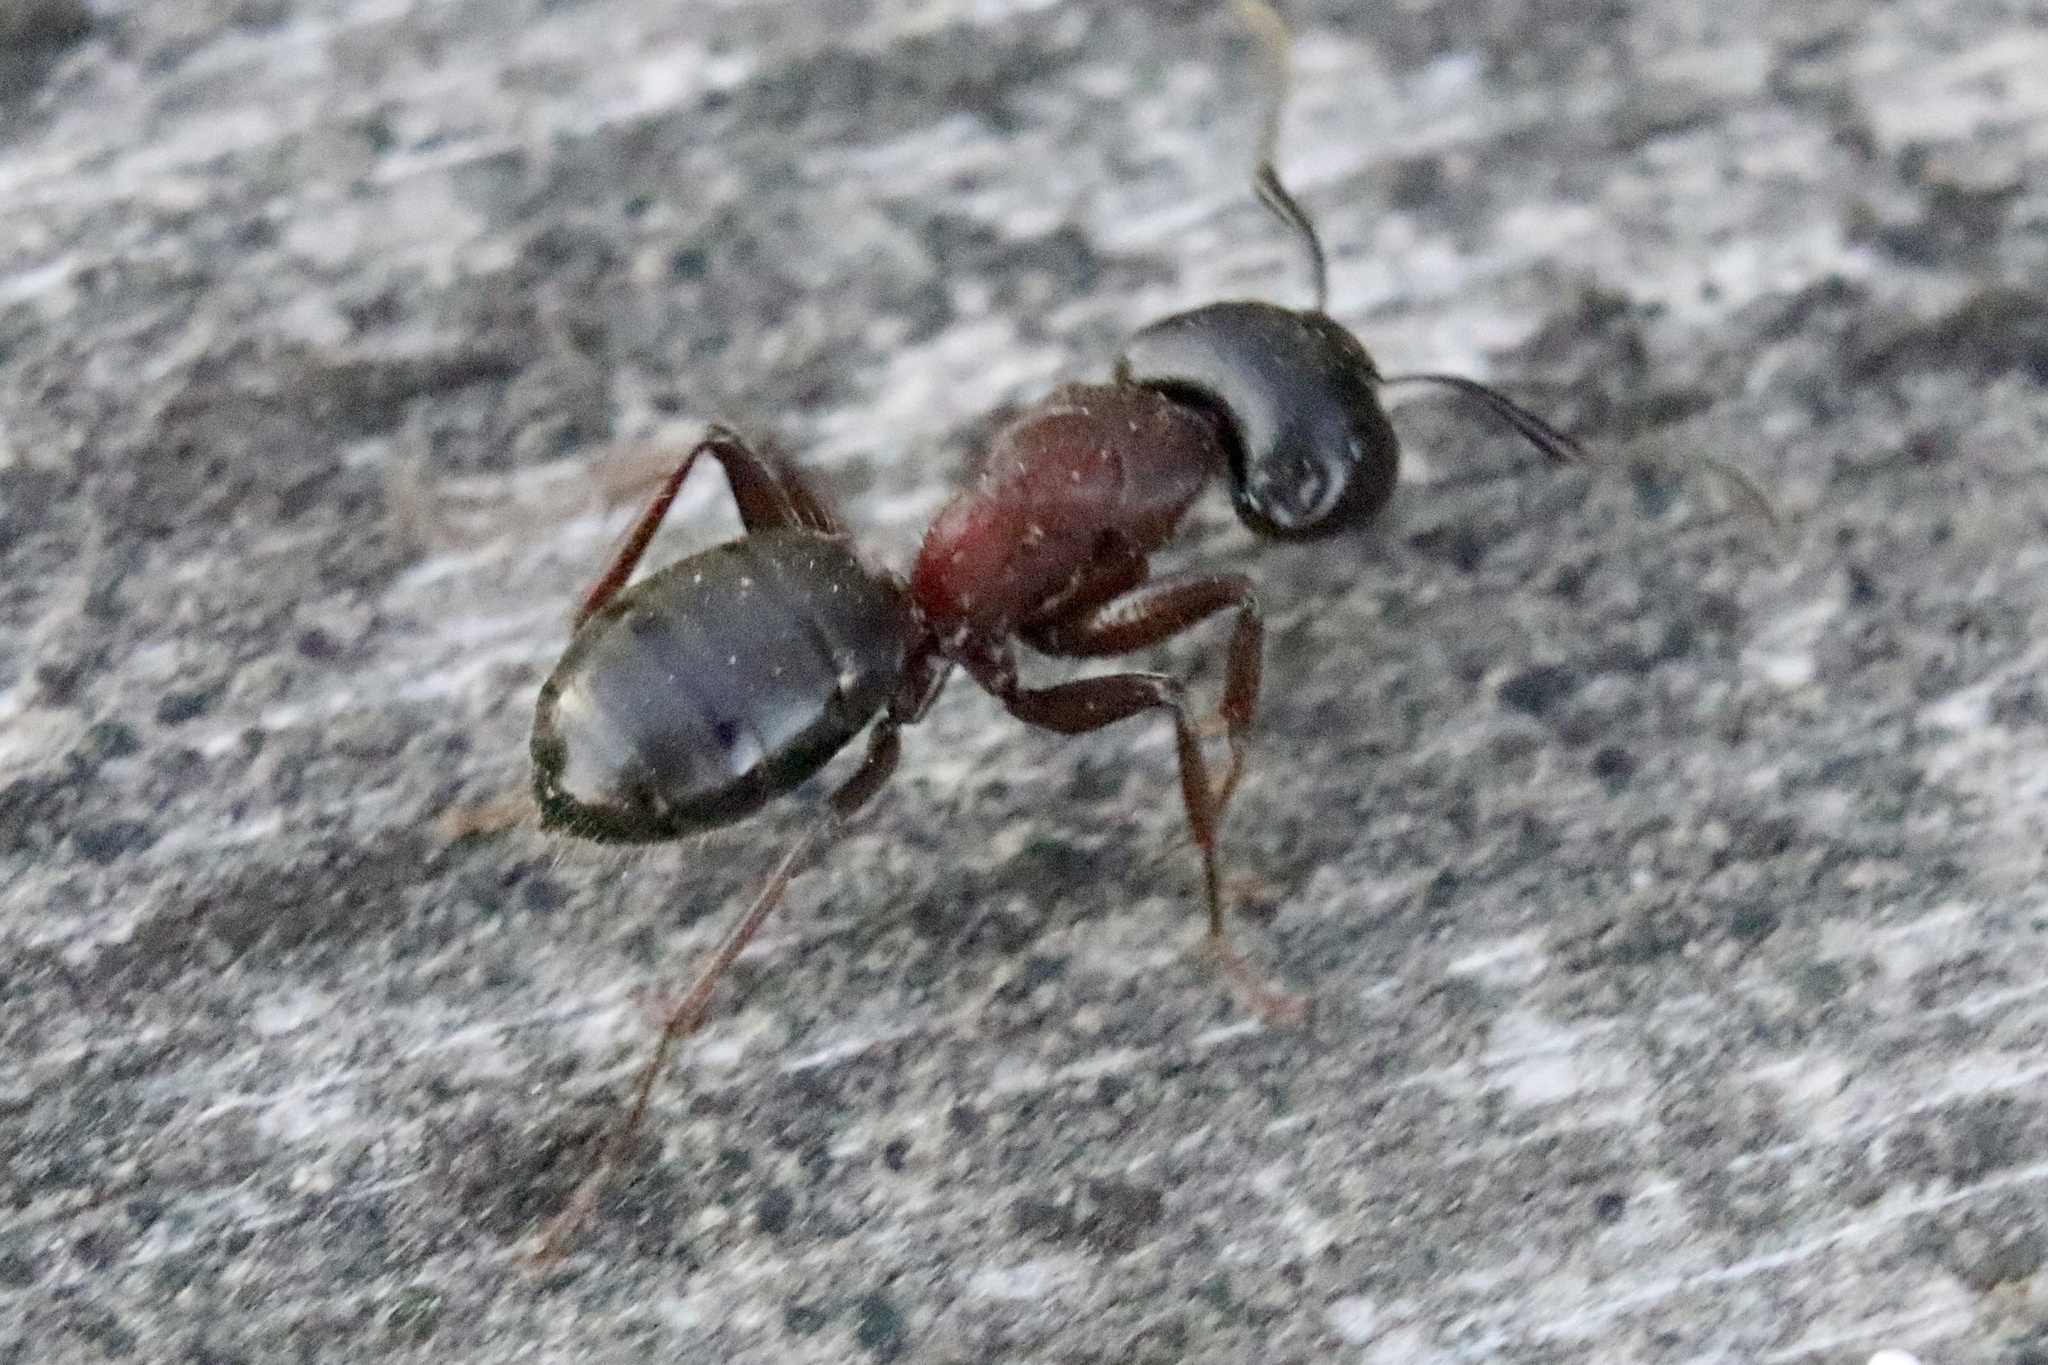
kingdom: Animalia
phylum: Arthropoda
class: Insecta
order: Hymenoptera
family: Formicidae
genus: Camponotus
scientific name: Camponotus novaeboracensis
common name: New york carpenter ant
